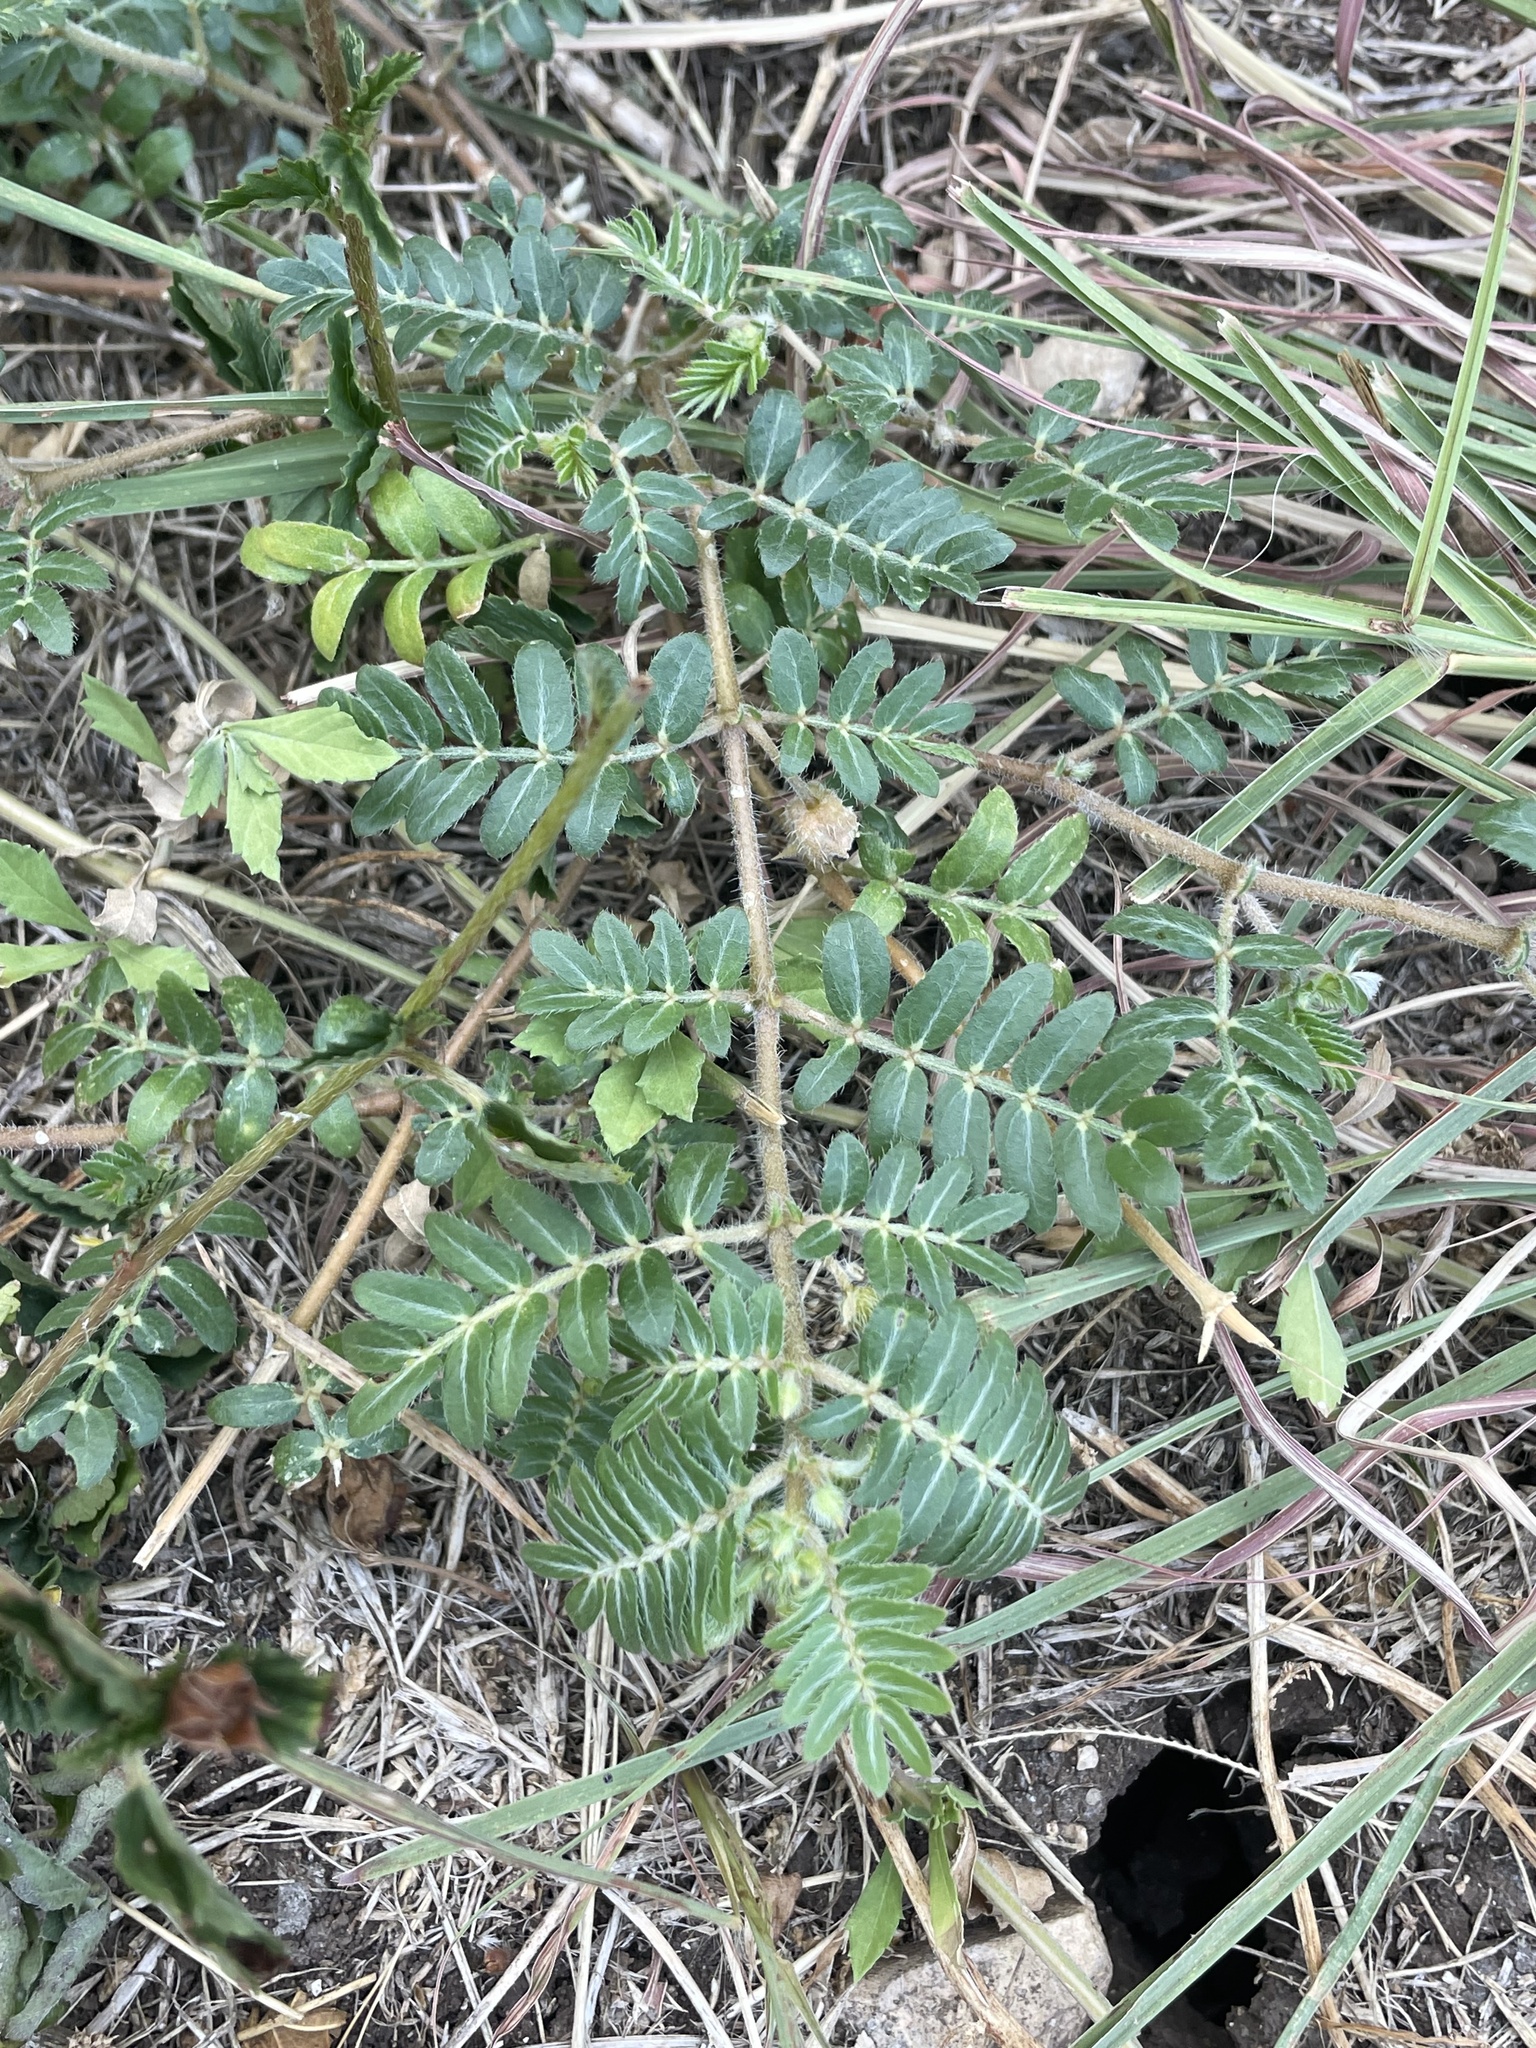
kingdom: Plantae
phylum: Tracheophyta
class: Magnoliopsida
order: Zygophyllales
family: Zygophyllaceae
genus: Tribulus
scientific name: Tribulus terrestris
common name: Puncturevine
